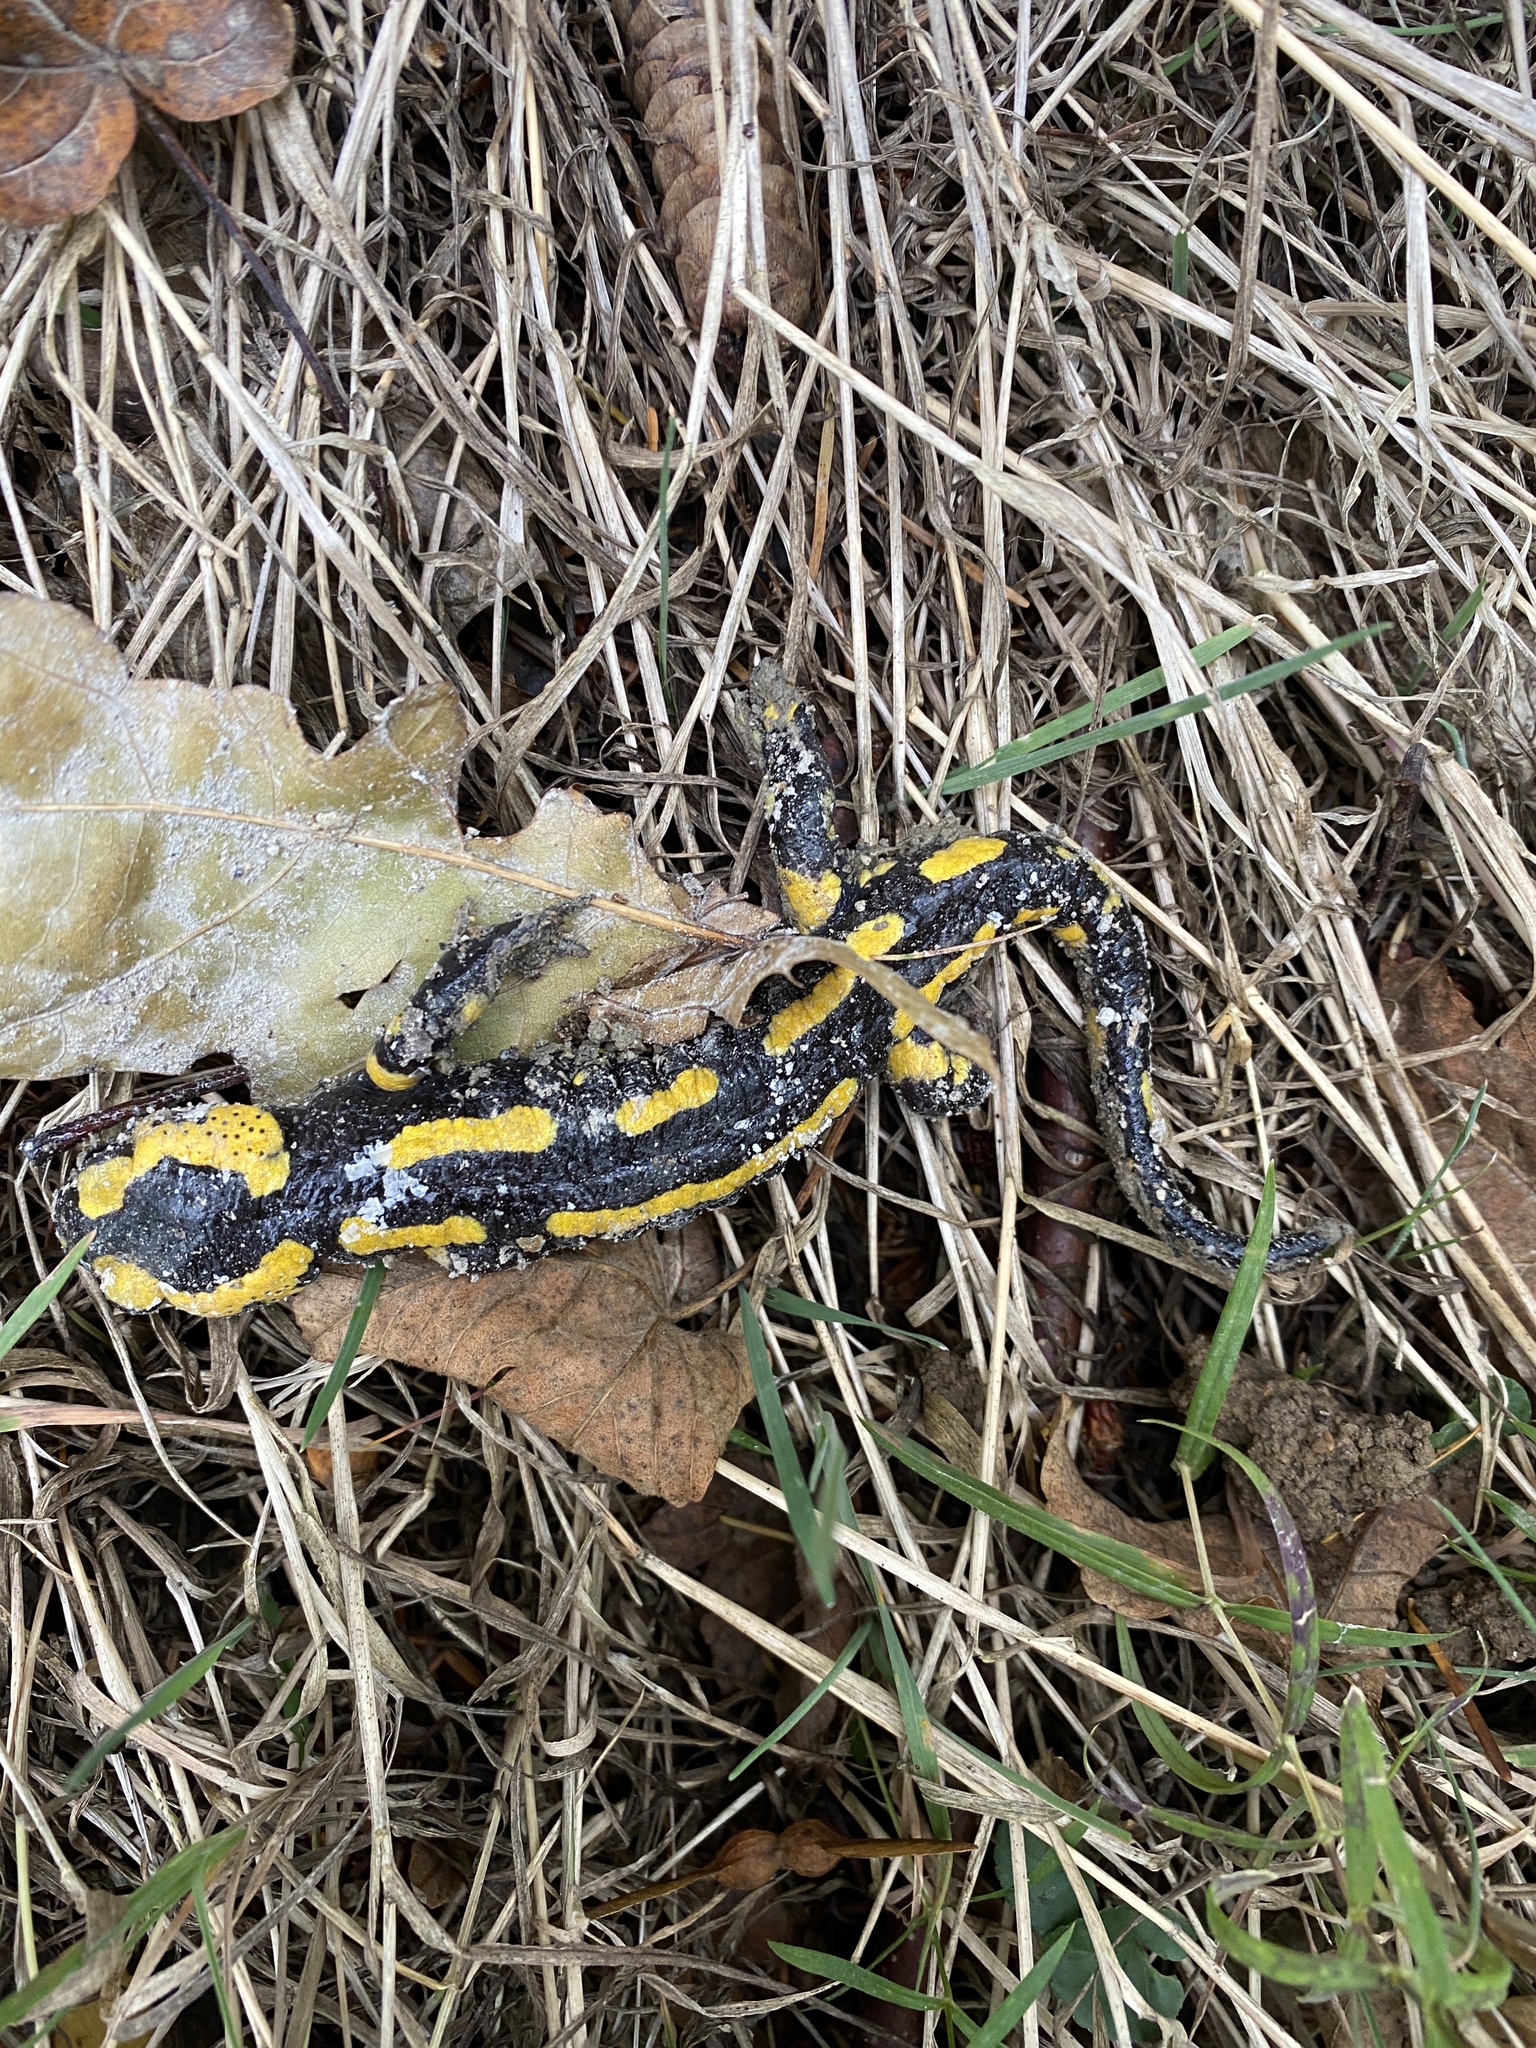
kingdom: Animalia
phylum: Chordata
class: Amphibia
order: Caudata
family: Salamandridae
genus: Salamandra
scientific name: Salamandra salamandra
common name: Fire salamander
